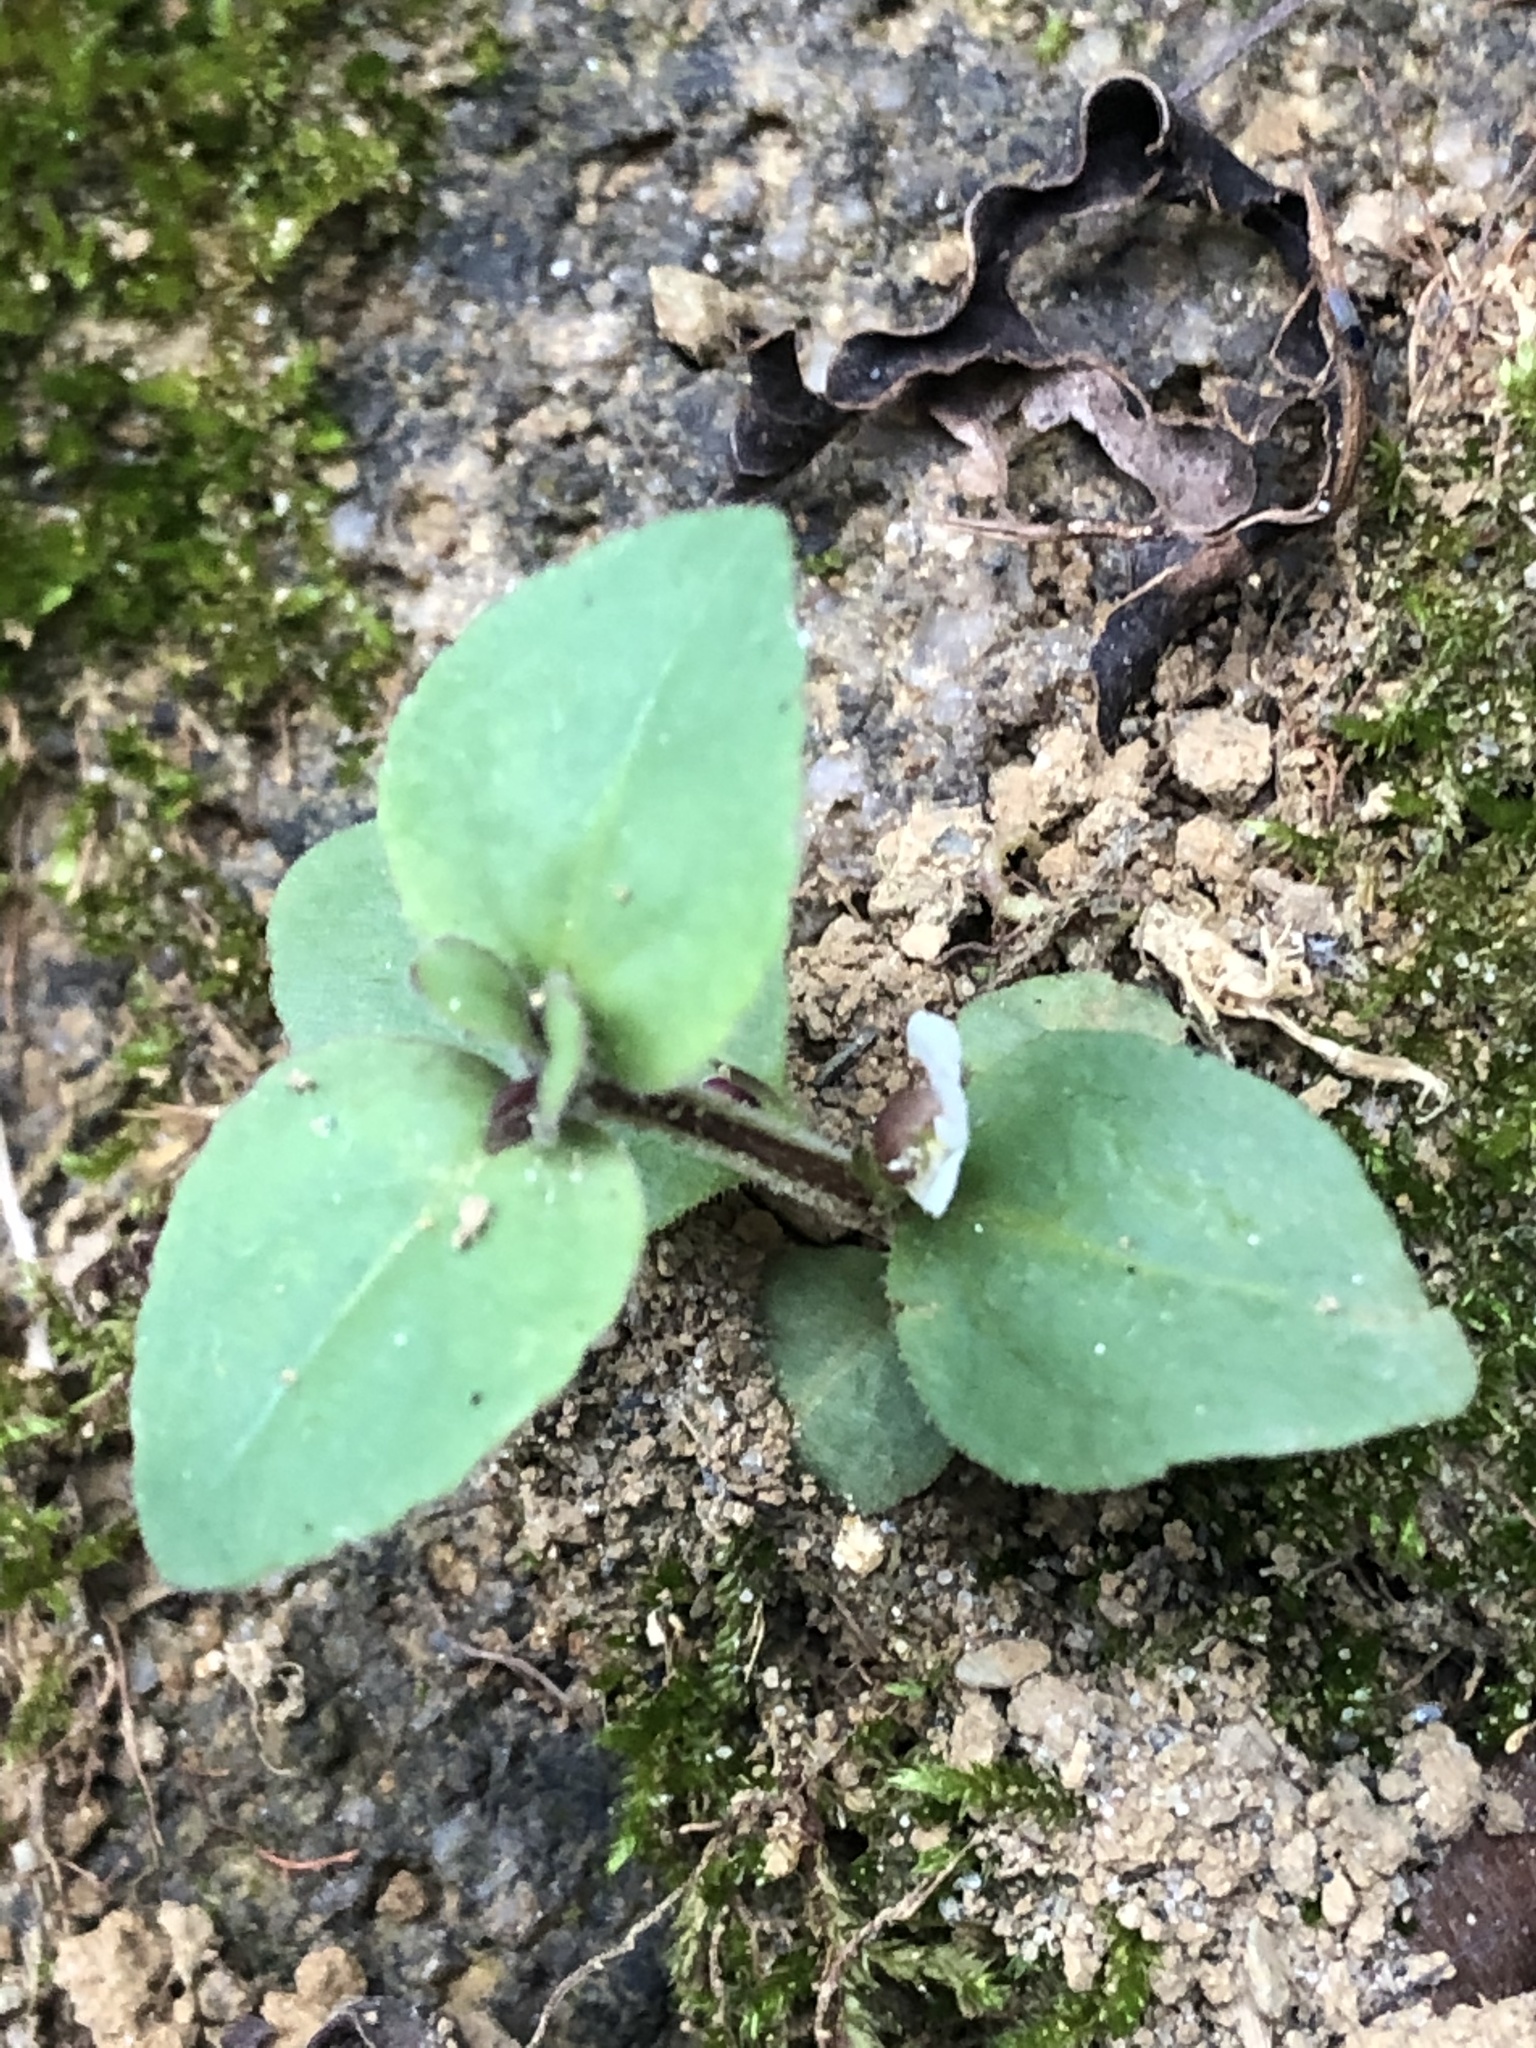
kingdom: Plantae
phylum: Tracheophyta
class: Magnoliopsida
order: Lamiales
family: Linderniaceae
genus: Vandellia
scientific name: Vandellia diffusa
